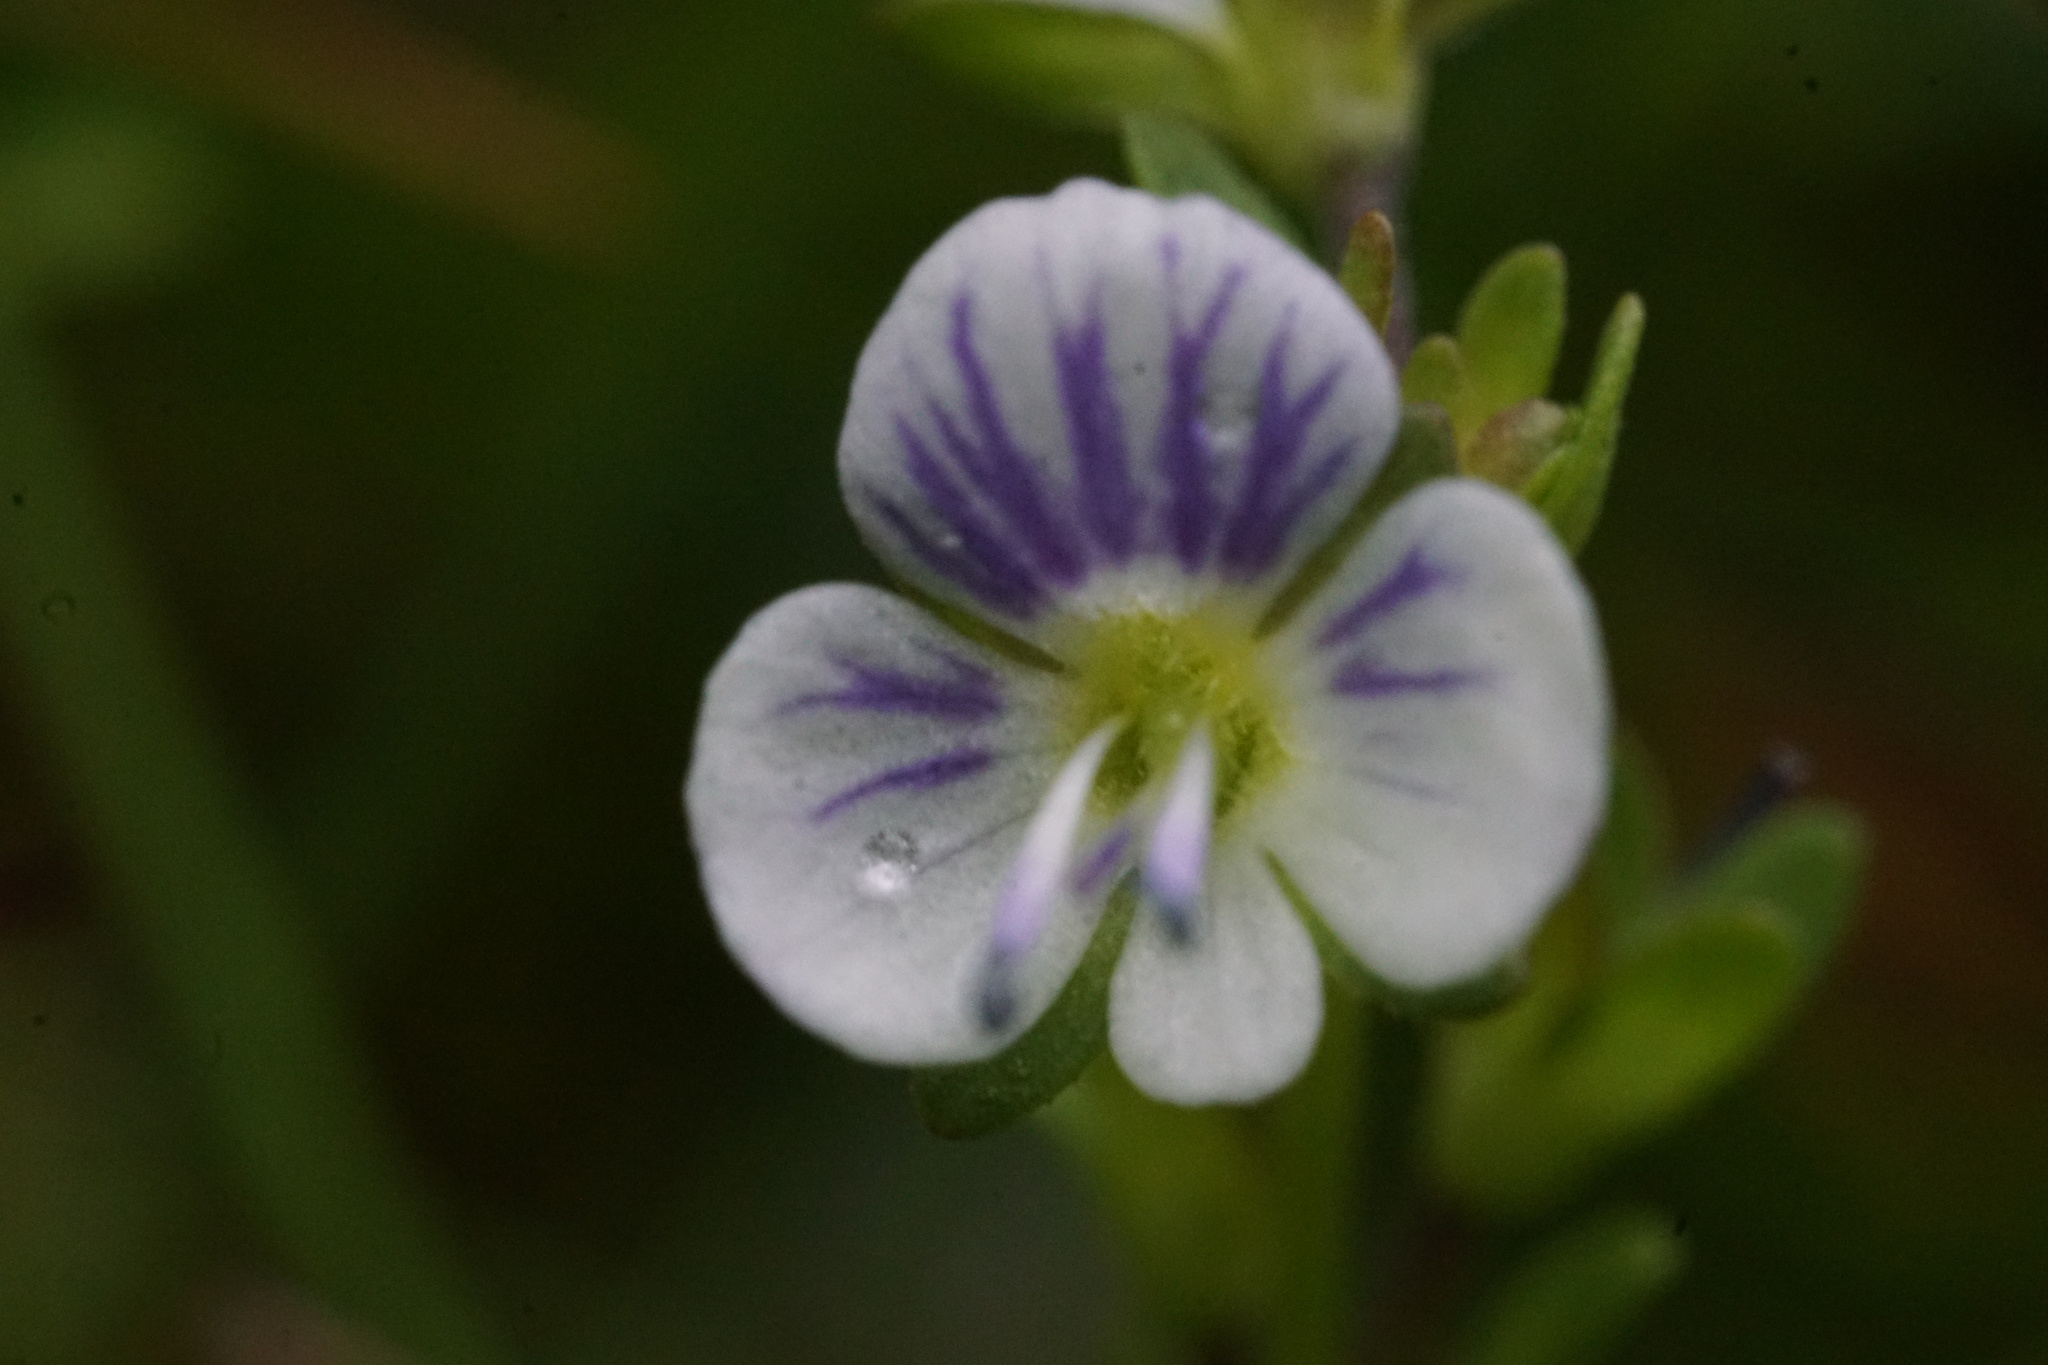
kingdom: Plantae
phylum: Tracheophyta
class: Magnoliopsida
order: Lamiales
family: Plantaginaceae
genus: Veronica
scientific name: Veronica serpyllifolia
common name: Thyme-leaved speedwell
